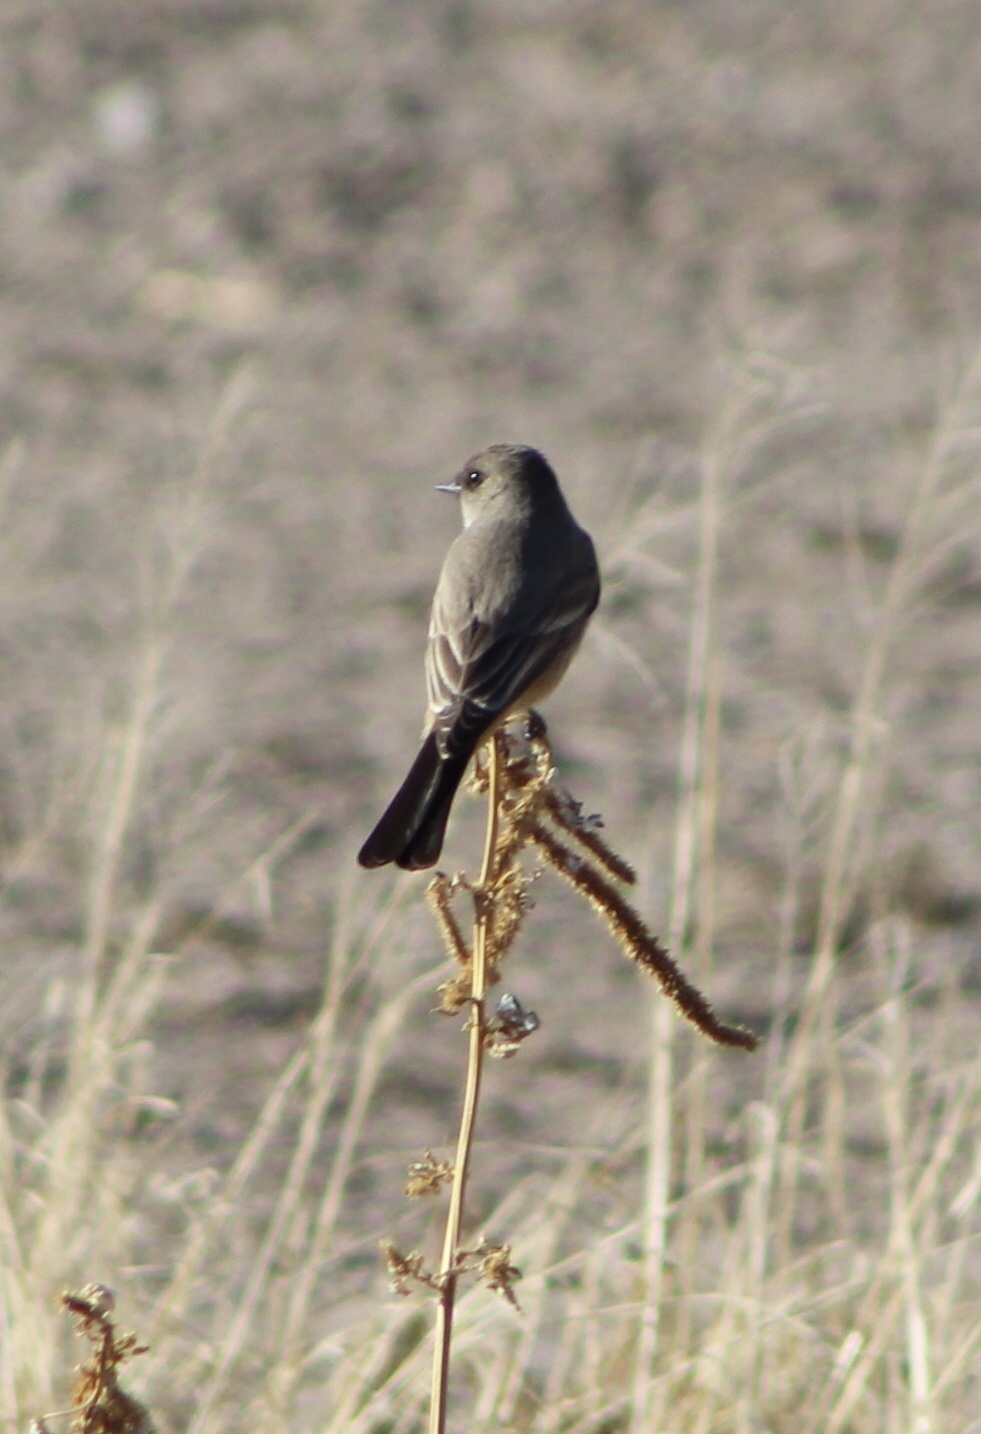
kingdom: Animalia
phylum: Chordata
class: Aves
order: Passeriformes
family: Tyrannidae
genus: Sayornis
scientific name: Sayornis saya
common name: Say's phoebe
